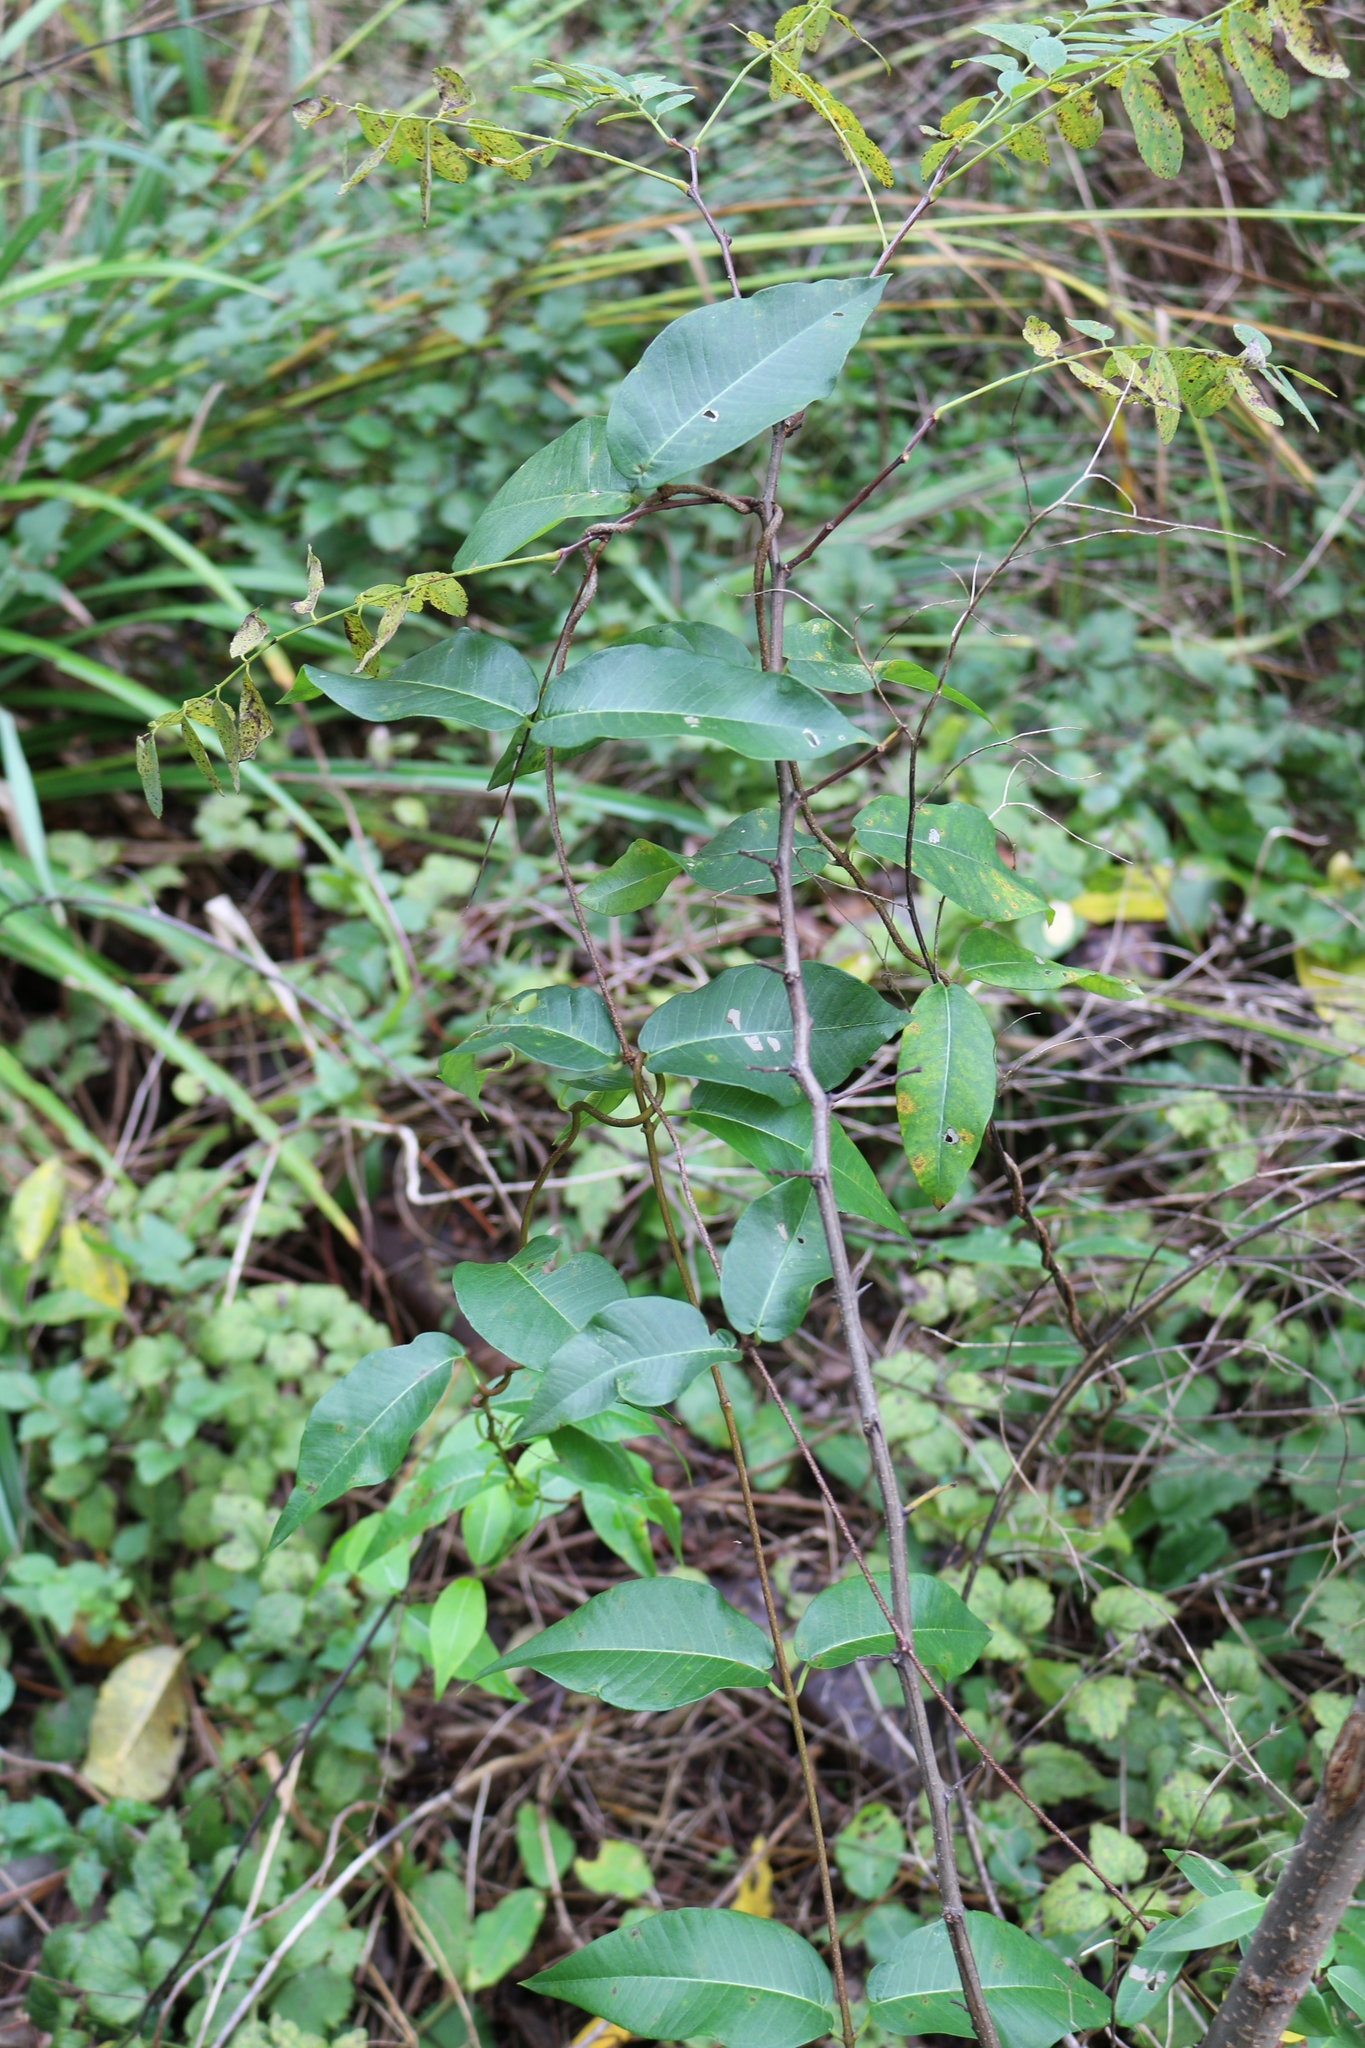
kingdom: Plantae
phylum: Tracheophyta
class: Magnoliopsida
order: Gentianales
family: Apocynaceae
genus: Periploca
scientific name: Periploca graeca
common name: Silkvine
